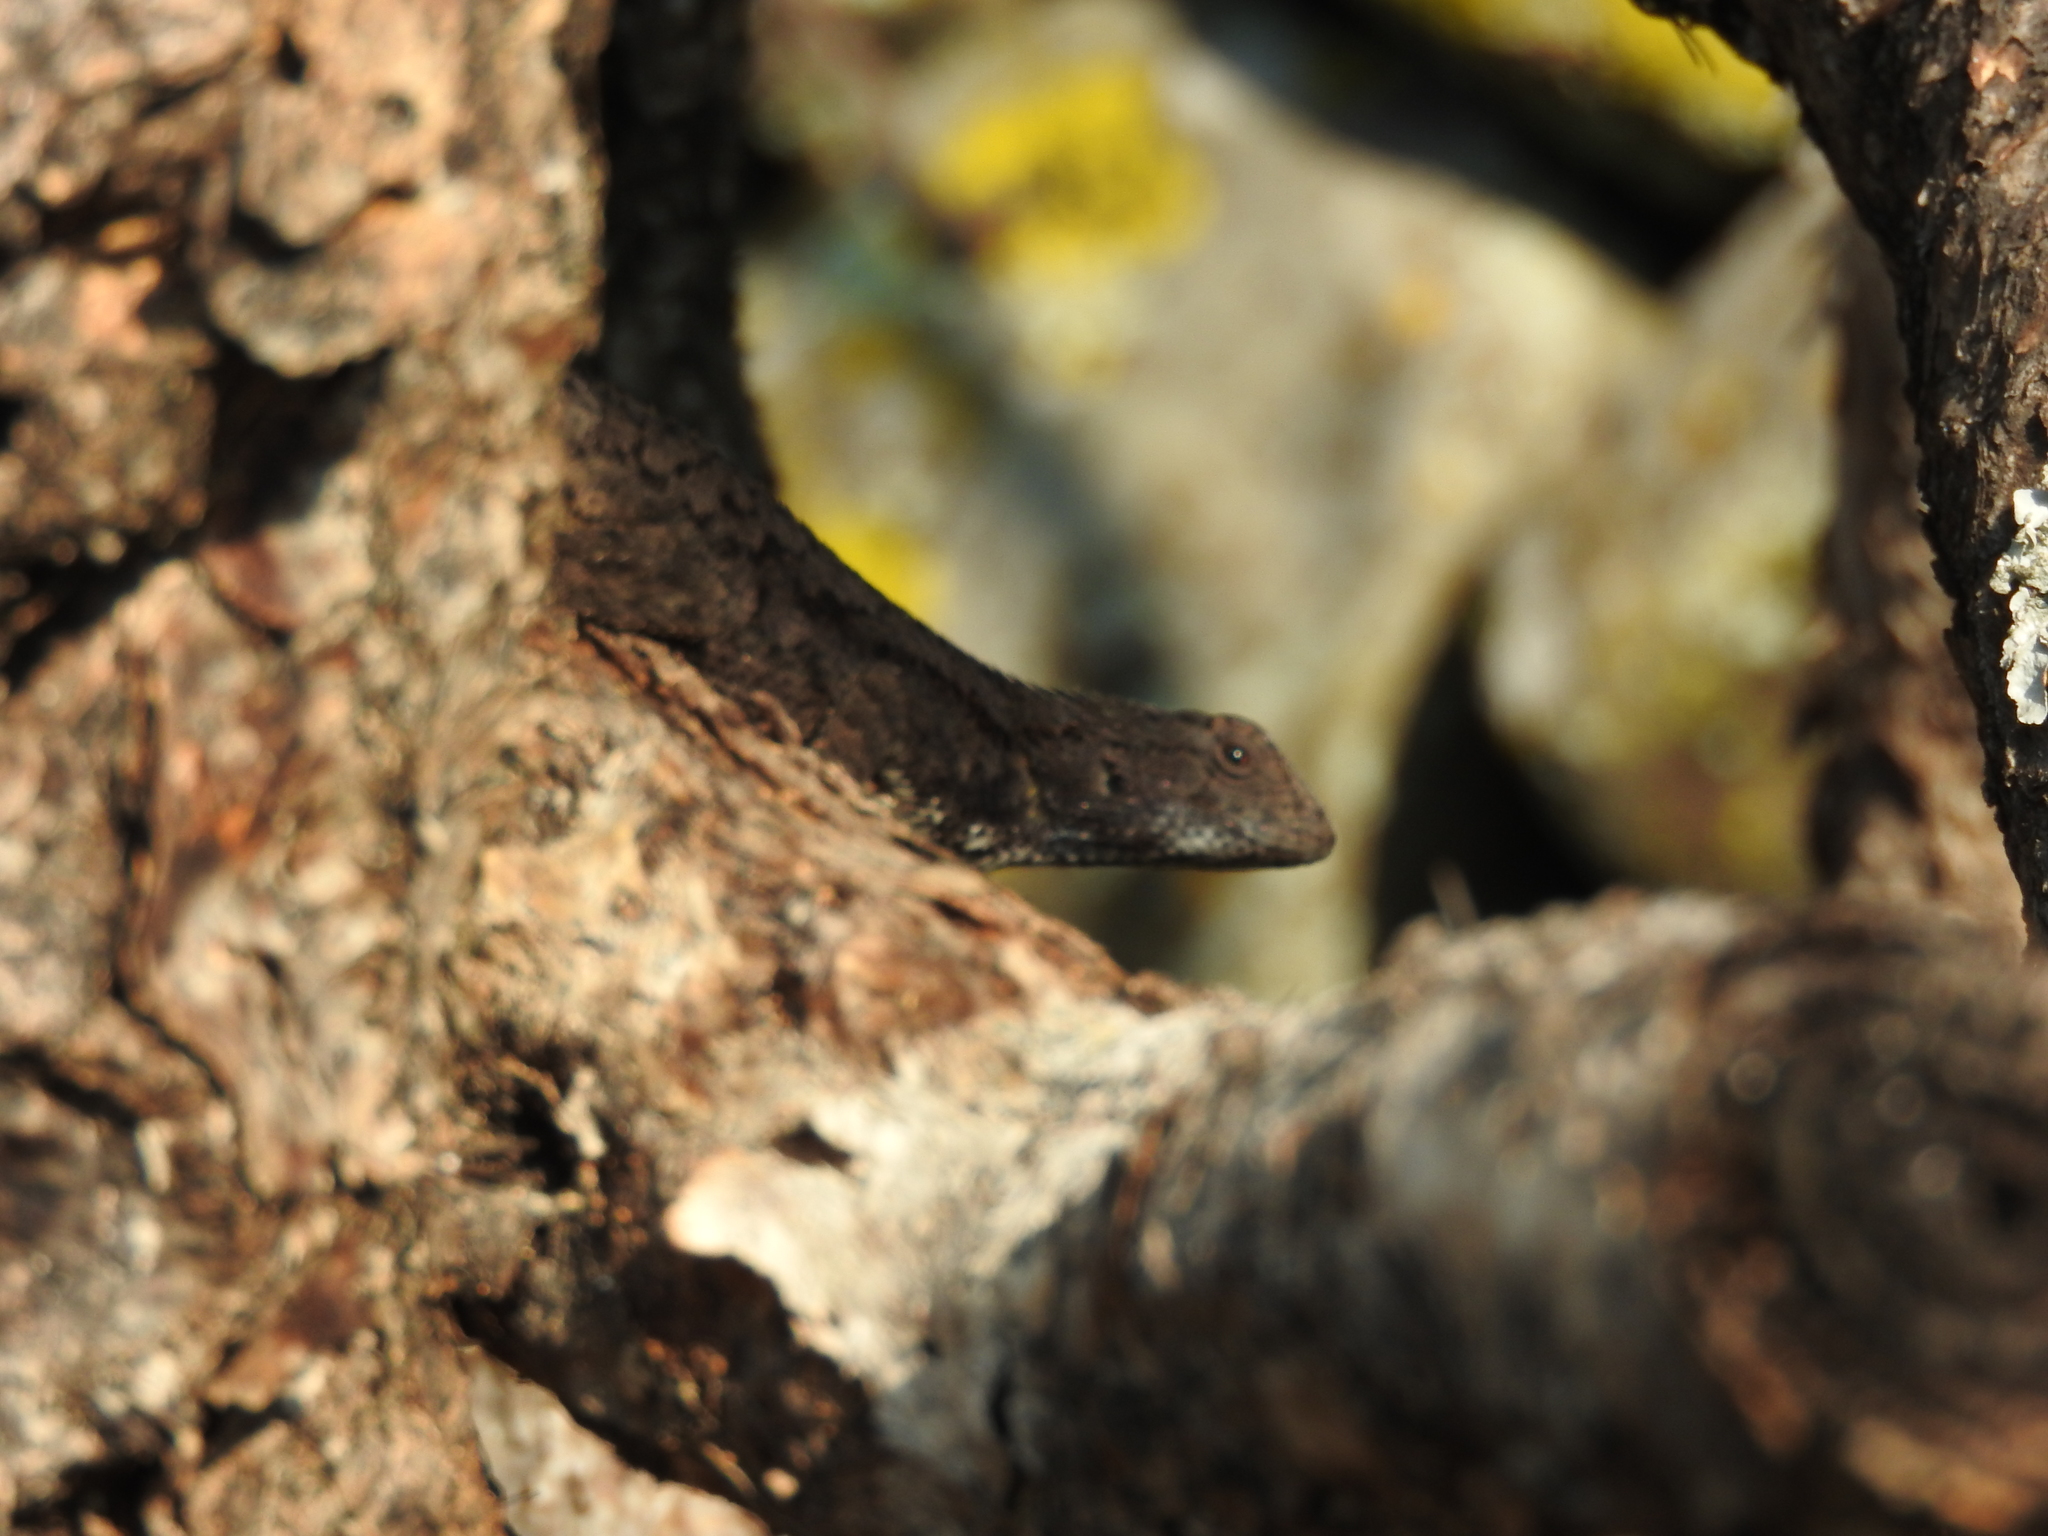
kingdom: Animalia
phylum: Chordata
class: Squamata
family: Phrynosomatidae
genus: Sceloporus
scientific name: Sceloporus grammicus
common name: Mesquite lizard
